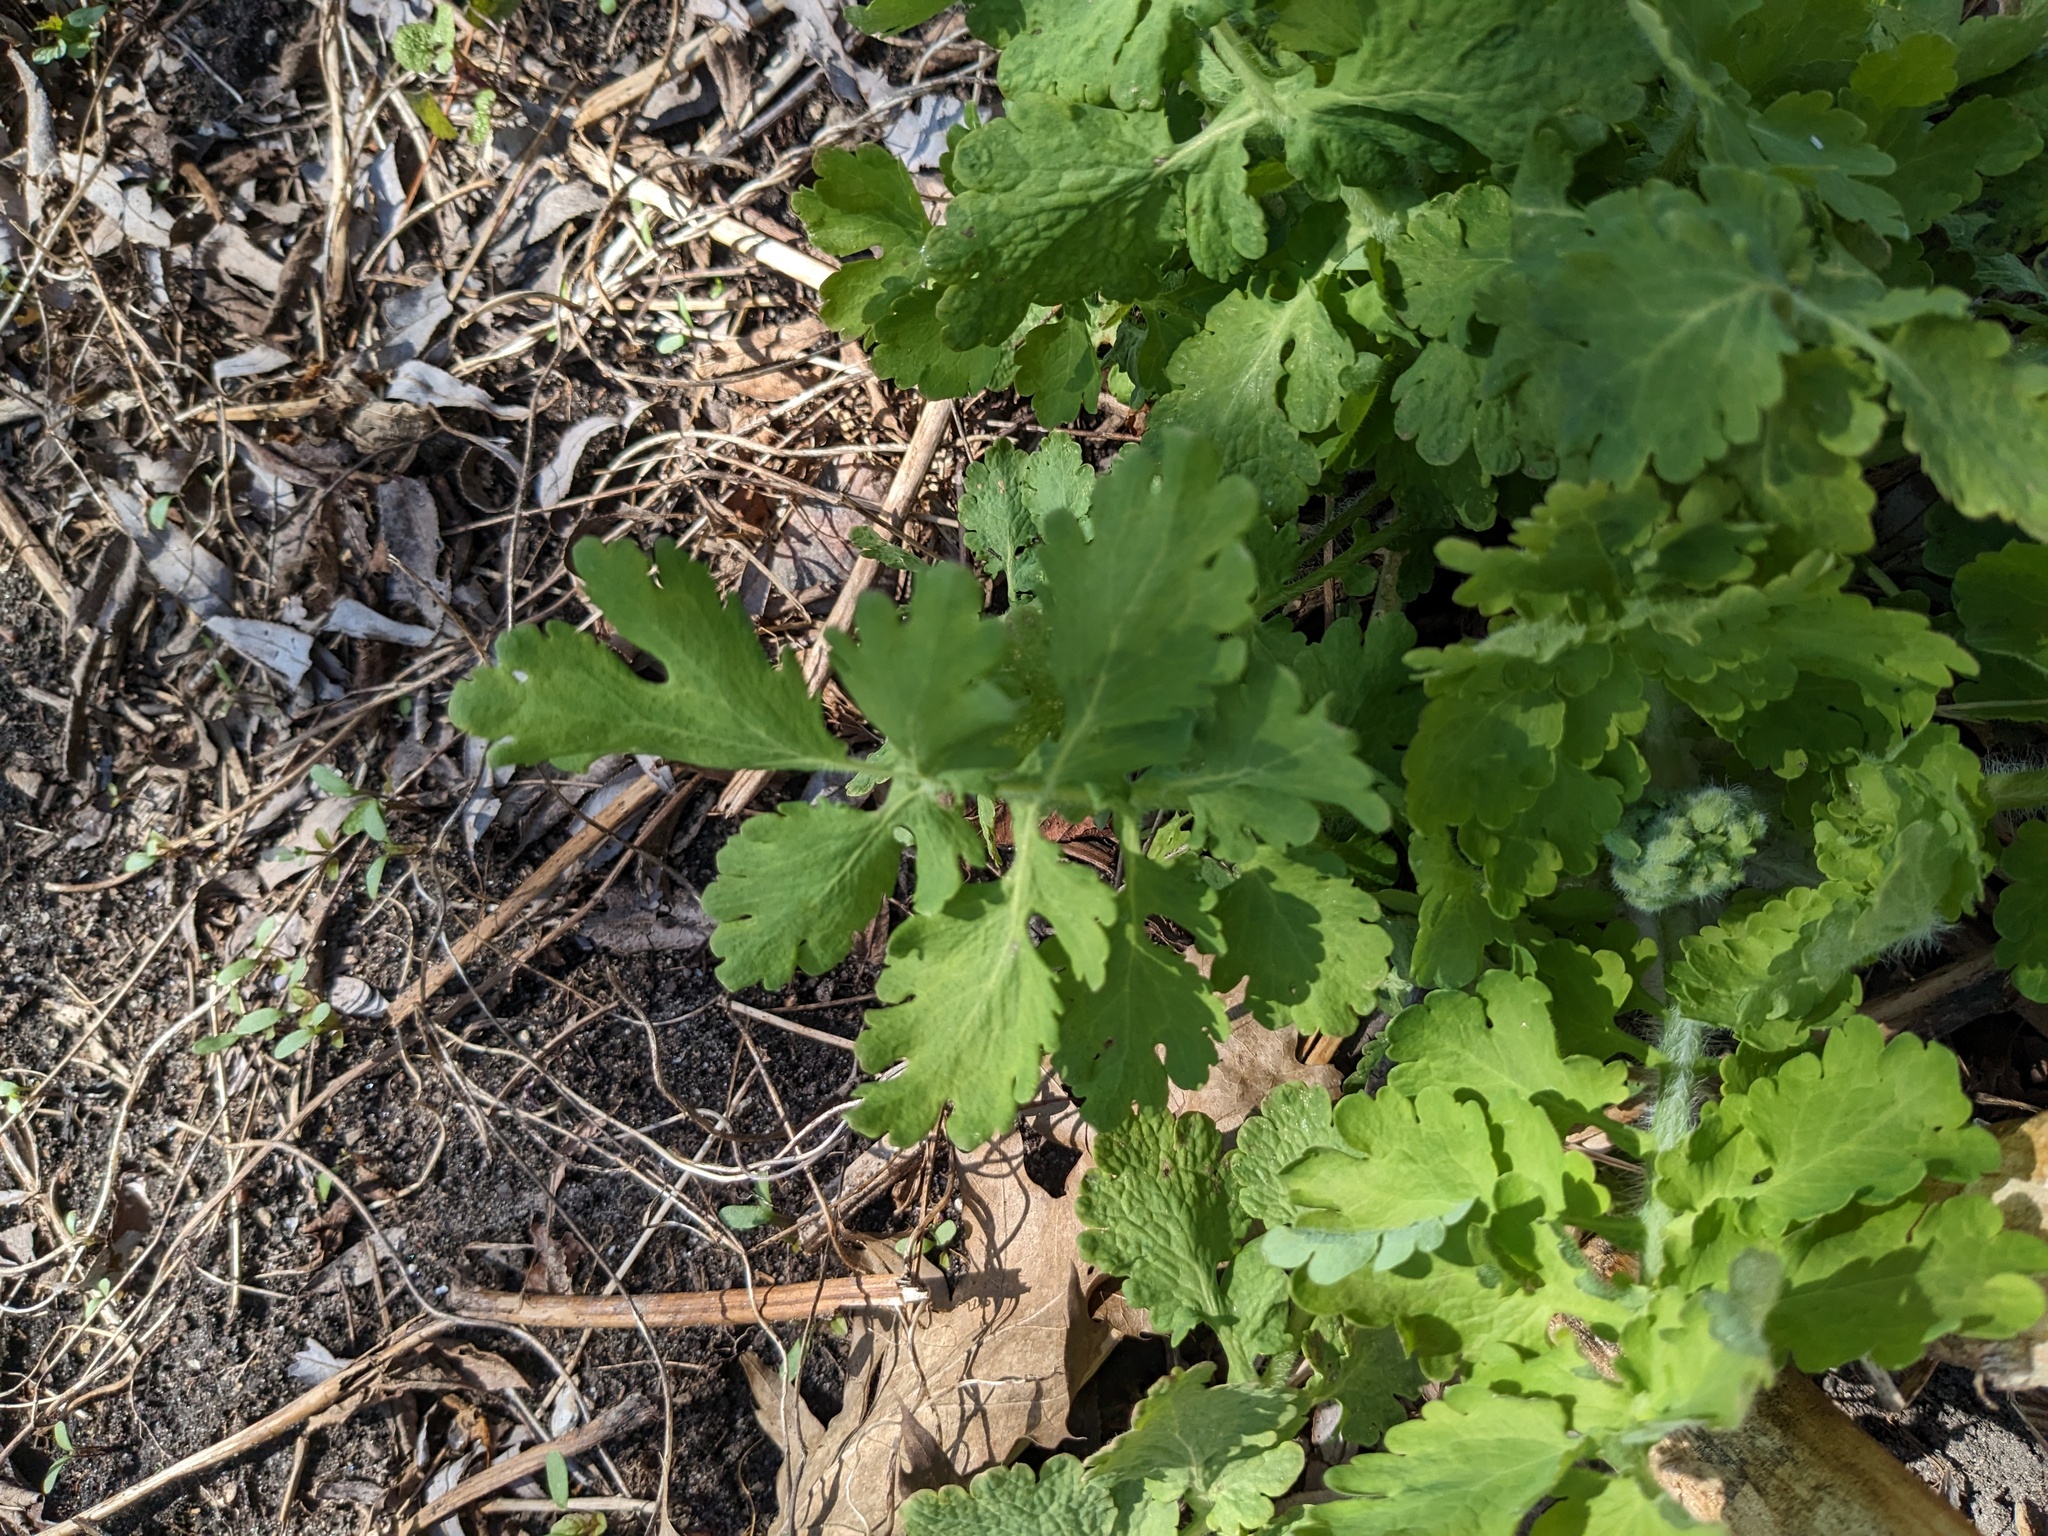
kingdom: Plantae
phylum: Tracheophyta
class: Magnoliopsida
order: Ranunculales
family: Papaveraceae
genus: Chelidonium
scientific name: Chelidonium majus
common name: Greater celandine
